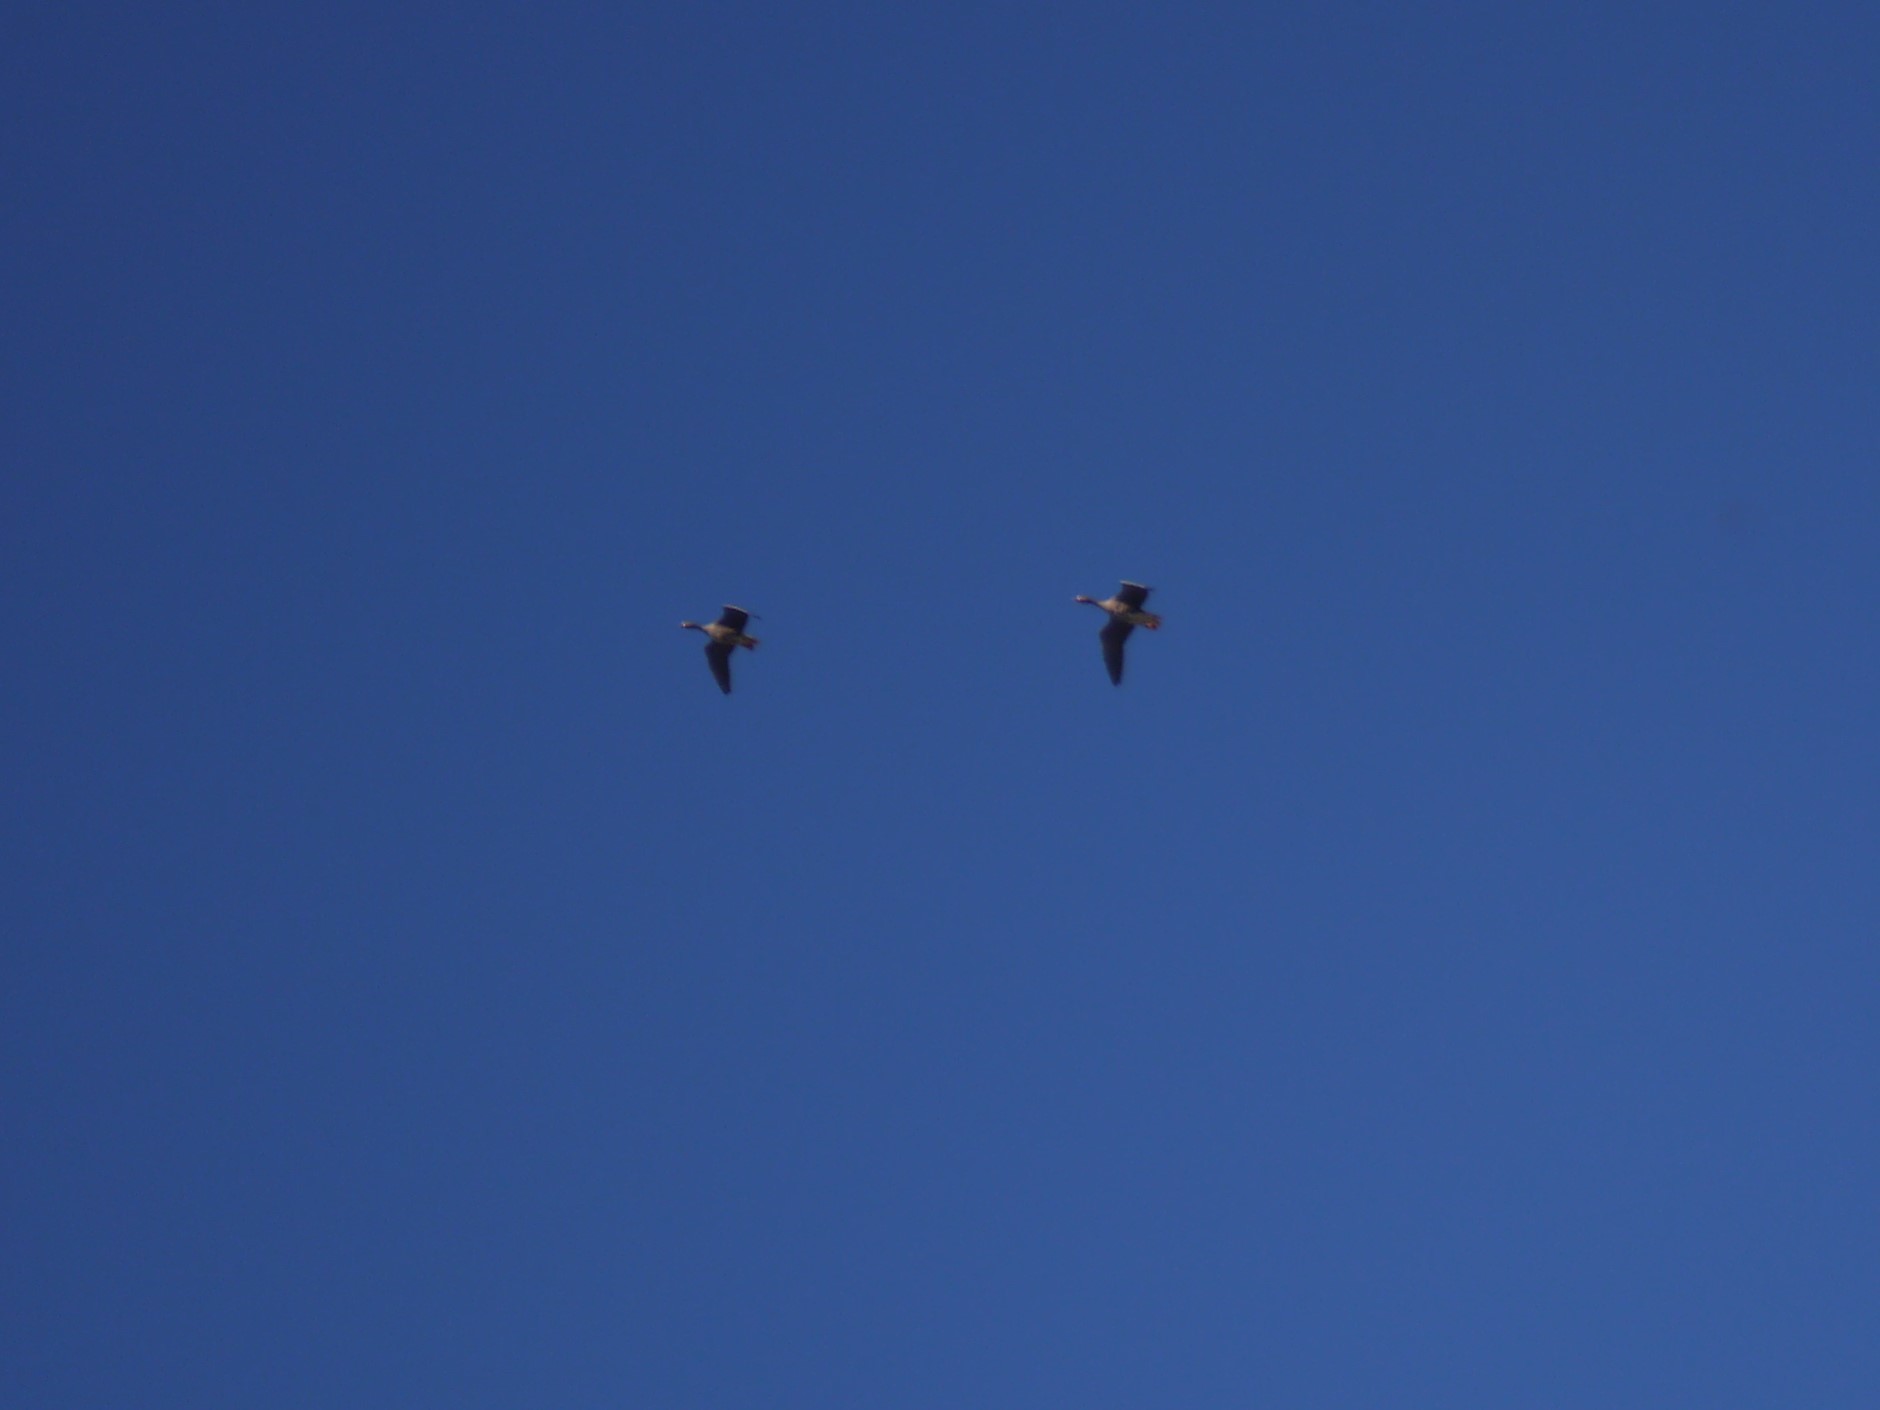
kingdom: Animalia
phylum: Chordata
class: Aves
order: Anseriformes
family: Anatidae
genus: Anser
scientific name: Anser albifrons
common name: Greater white-fronted goose
